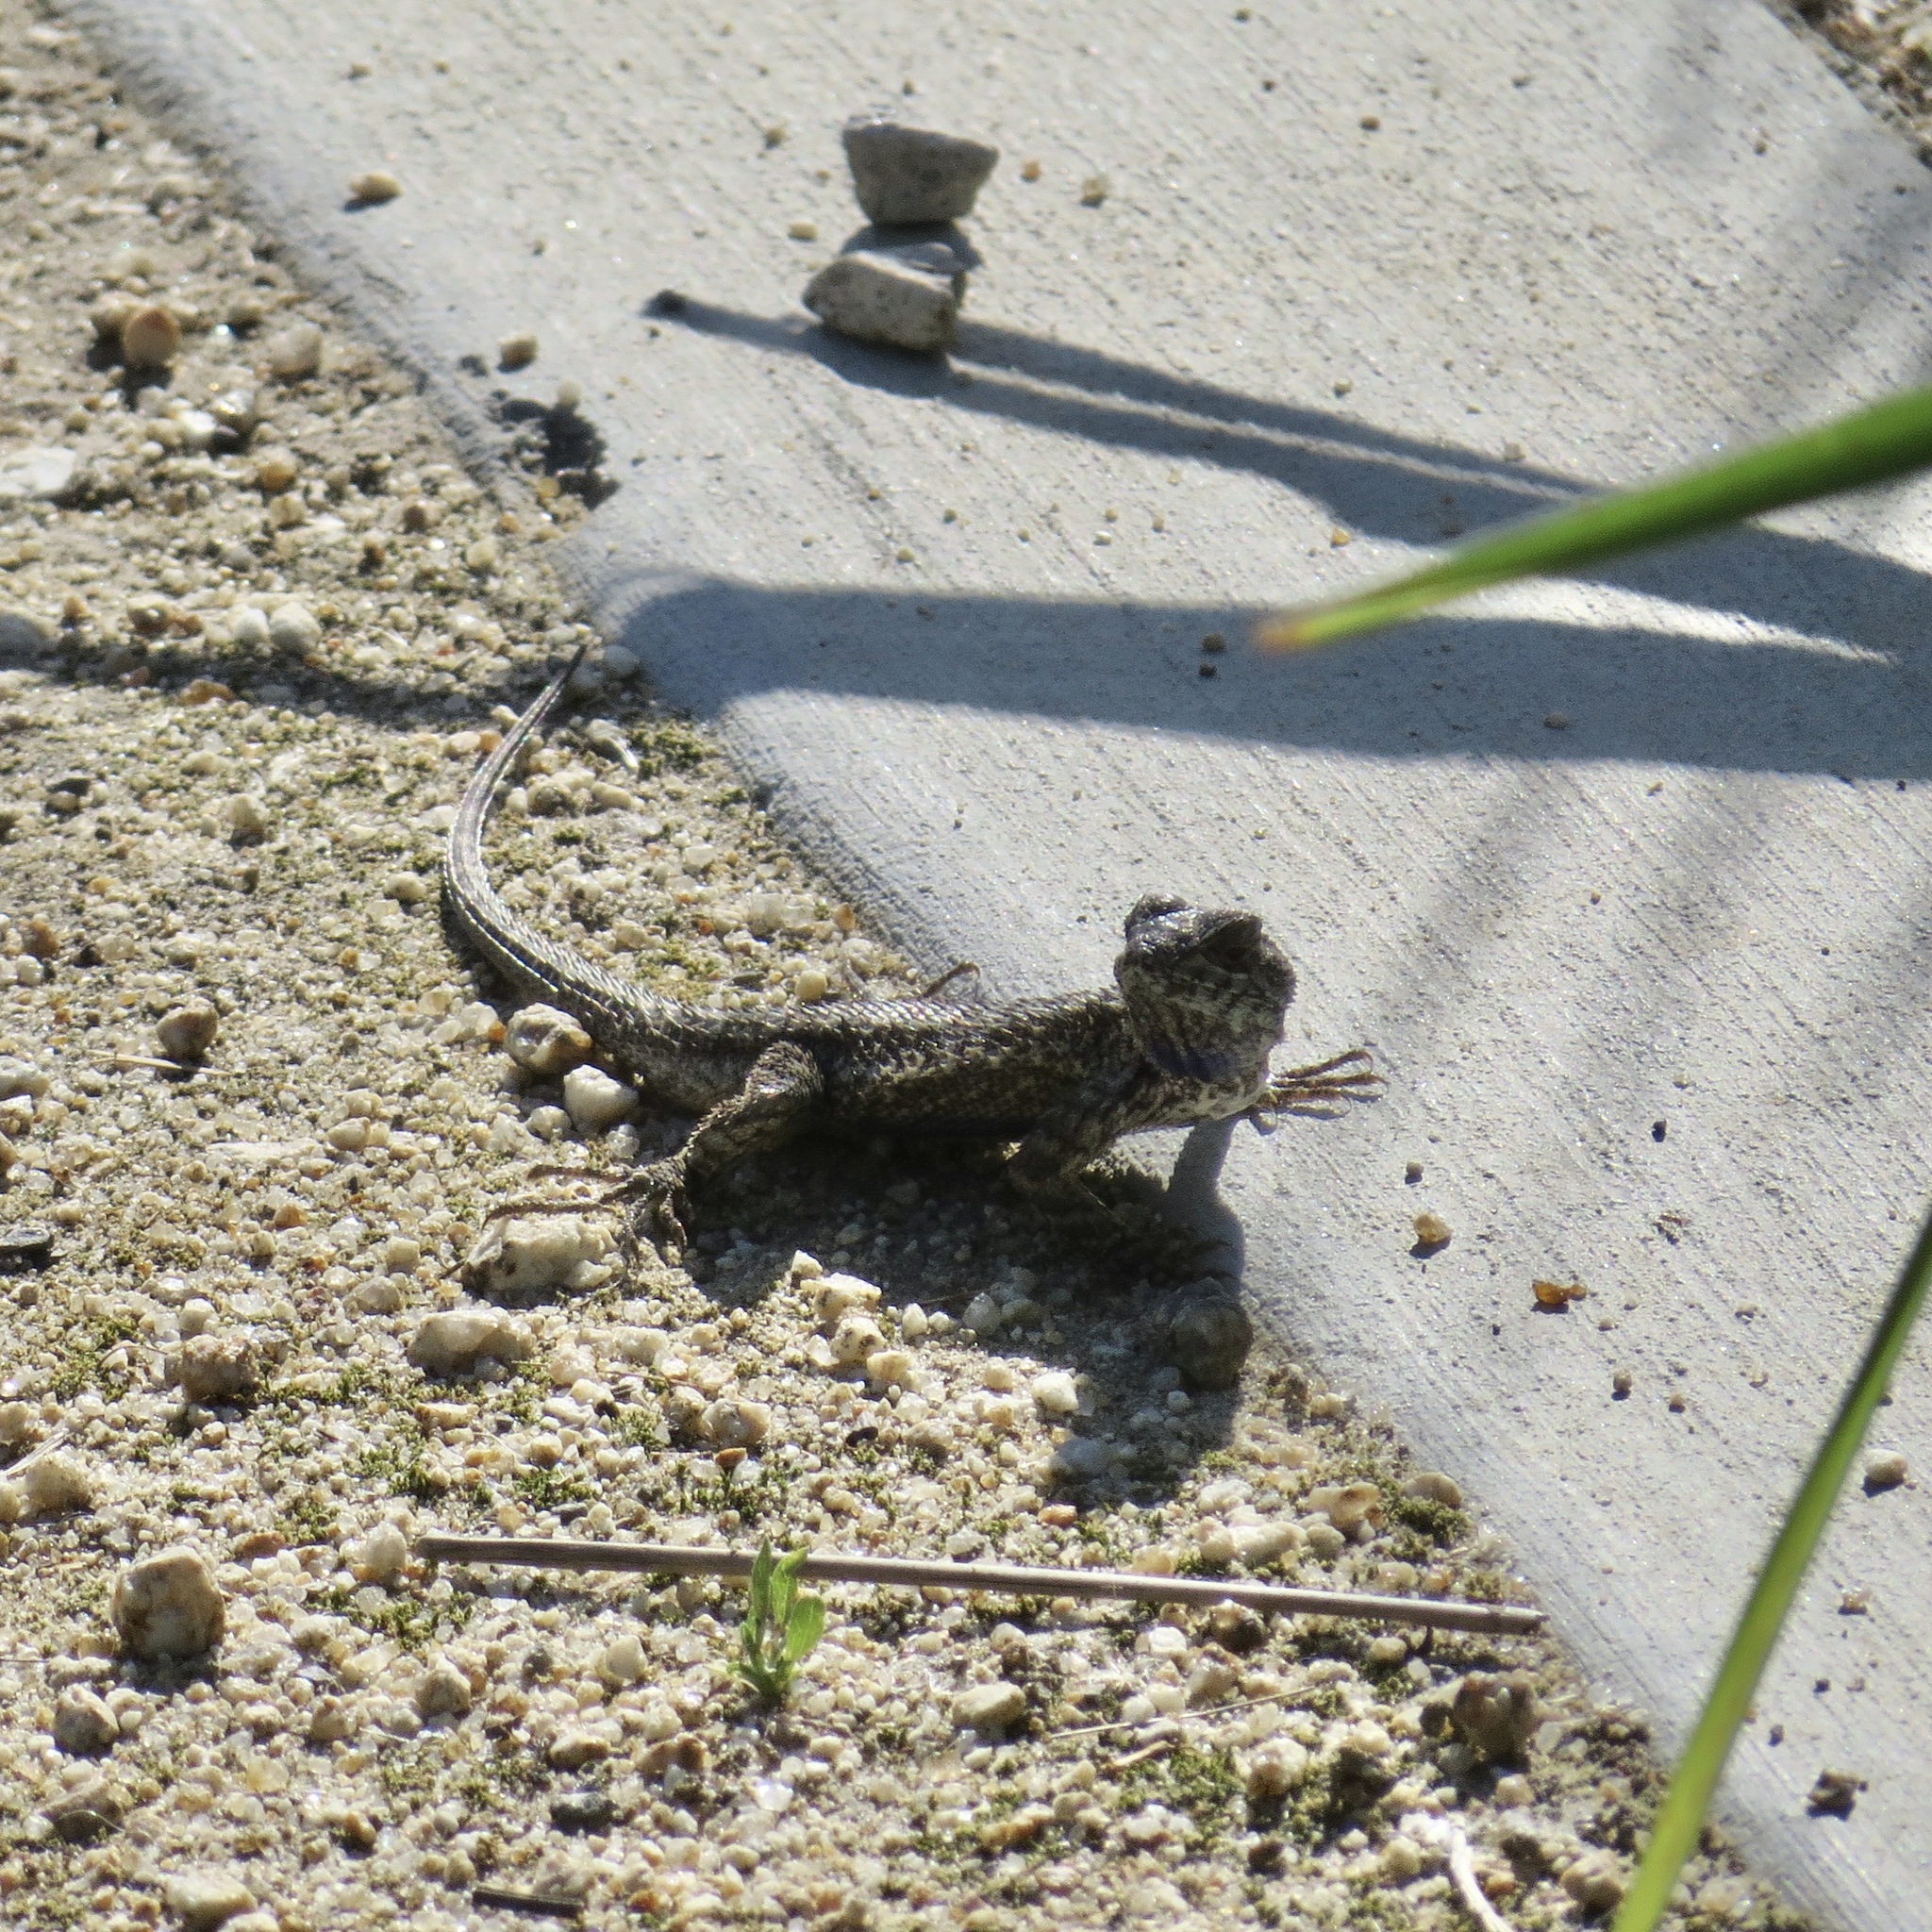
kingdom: Animalia
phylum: Chordata
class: Squamata
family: Phrynosomatidae
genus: Sceloporus
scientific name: Sceloporus occidentalis
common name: Western fence lizard
